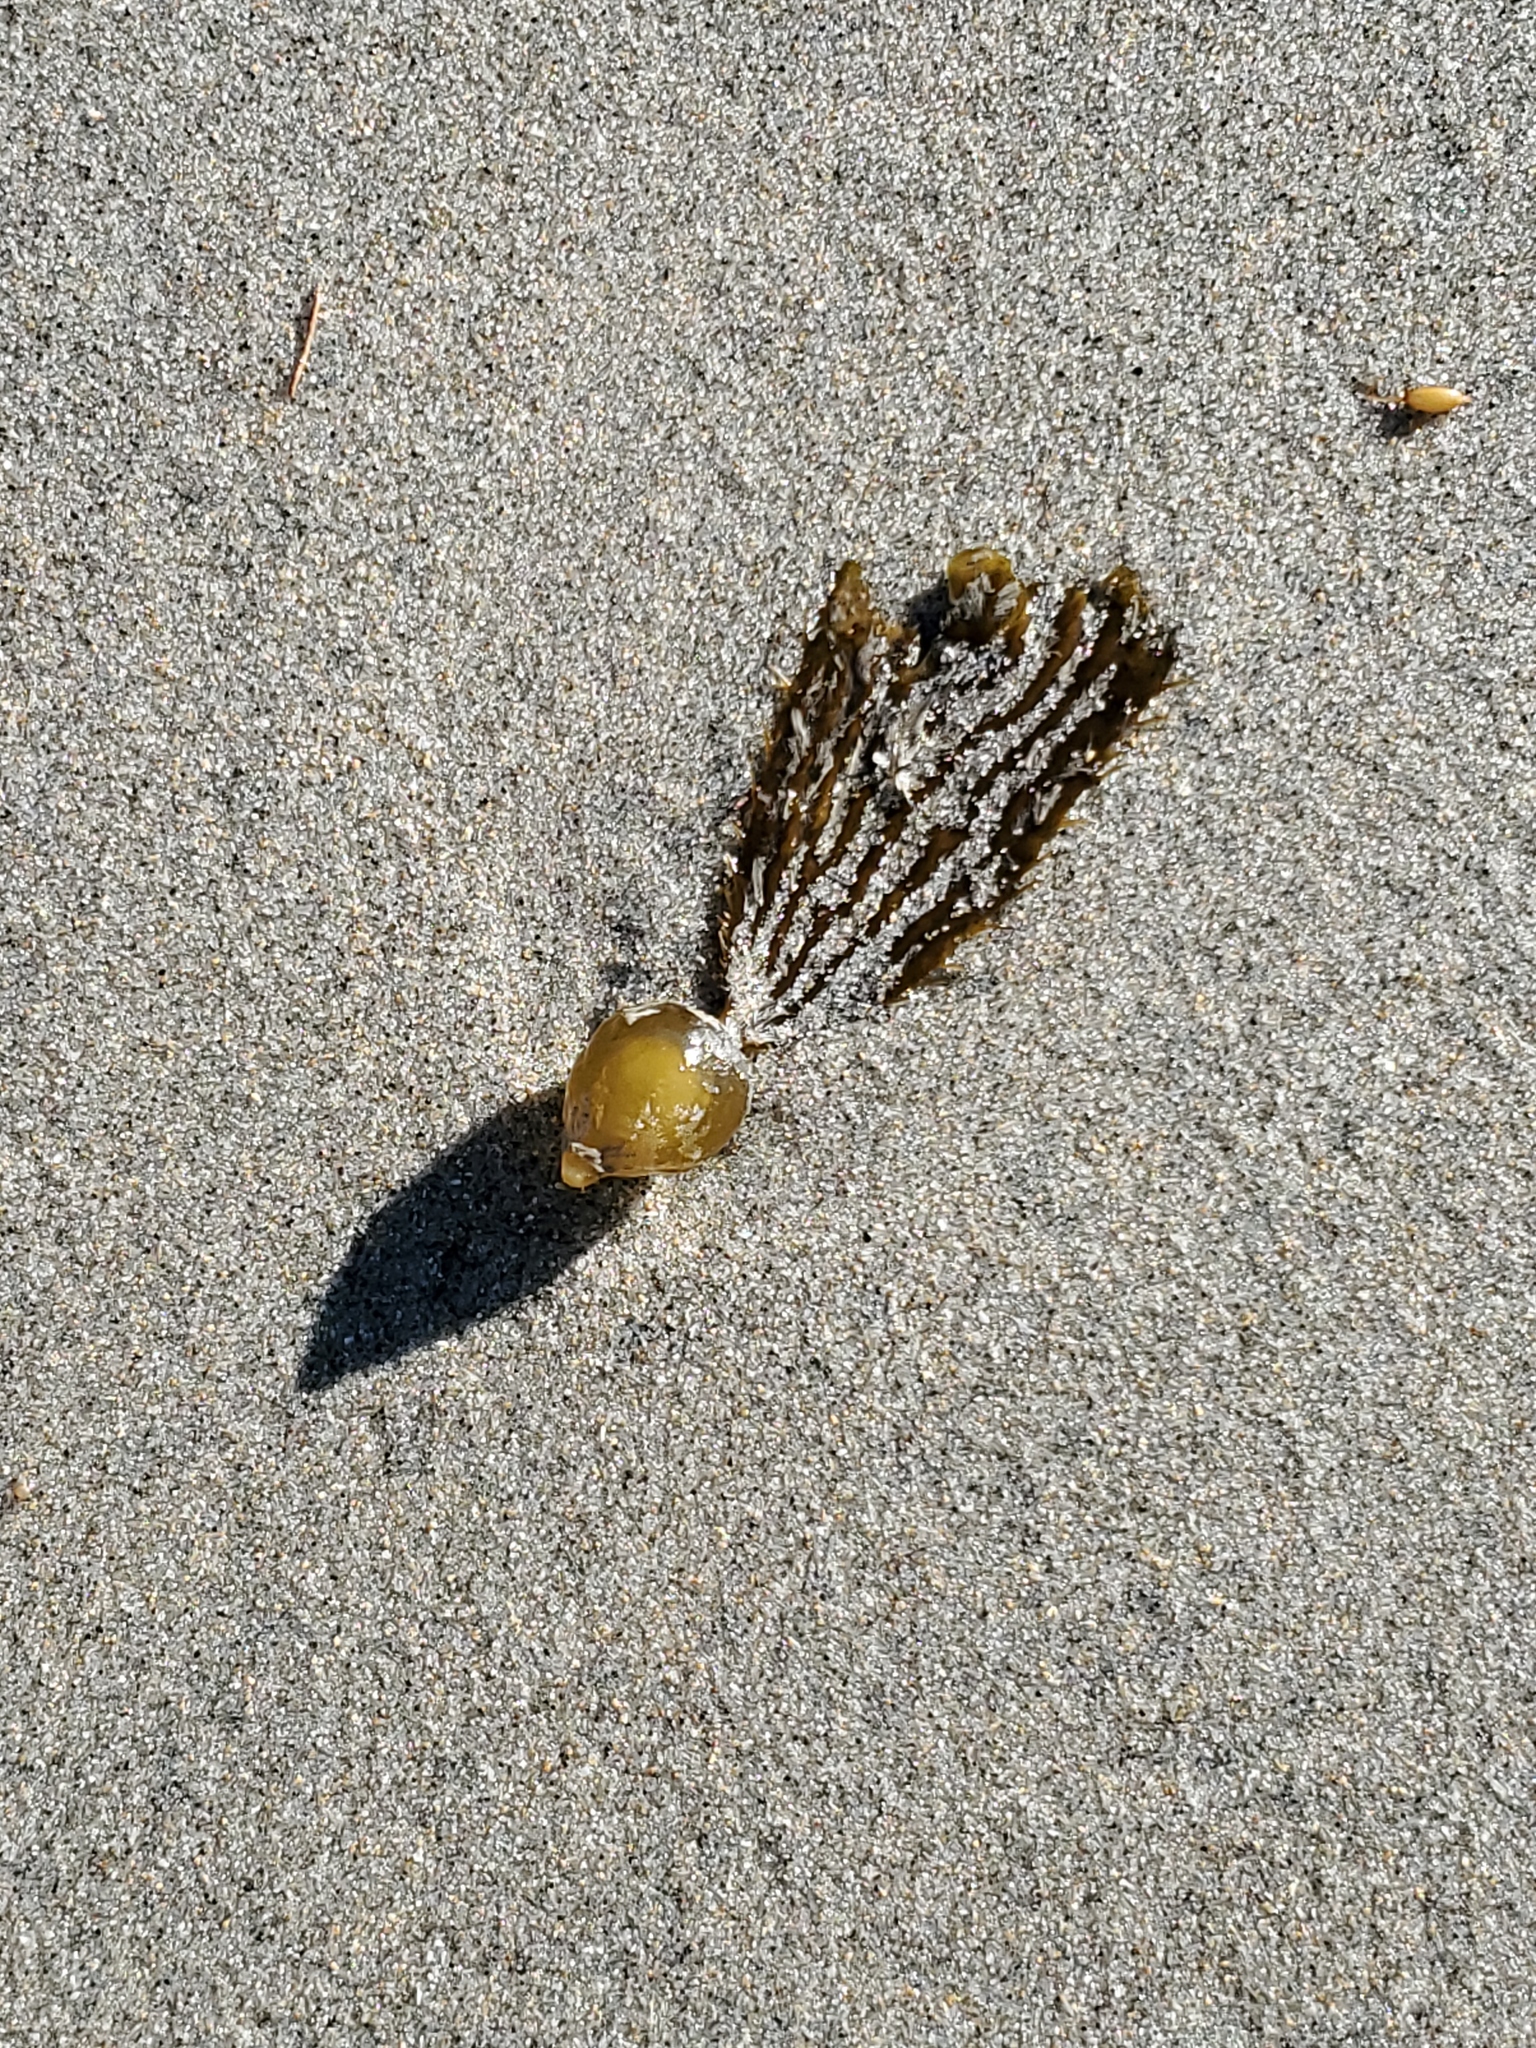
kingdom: Chromista
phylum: Ochrophyta
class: Phaeophyceae
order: Laminariales
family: Laminariaceae
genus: Macrocystis
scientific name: Macrocystis pyrifera
